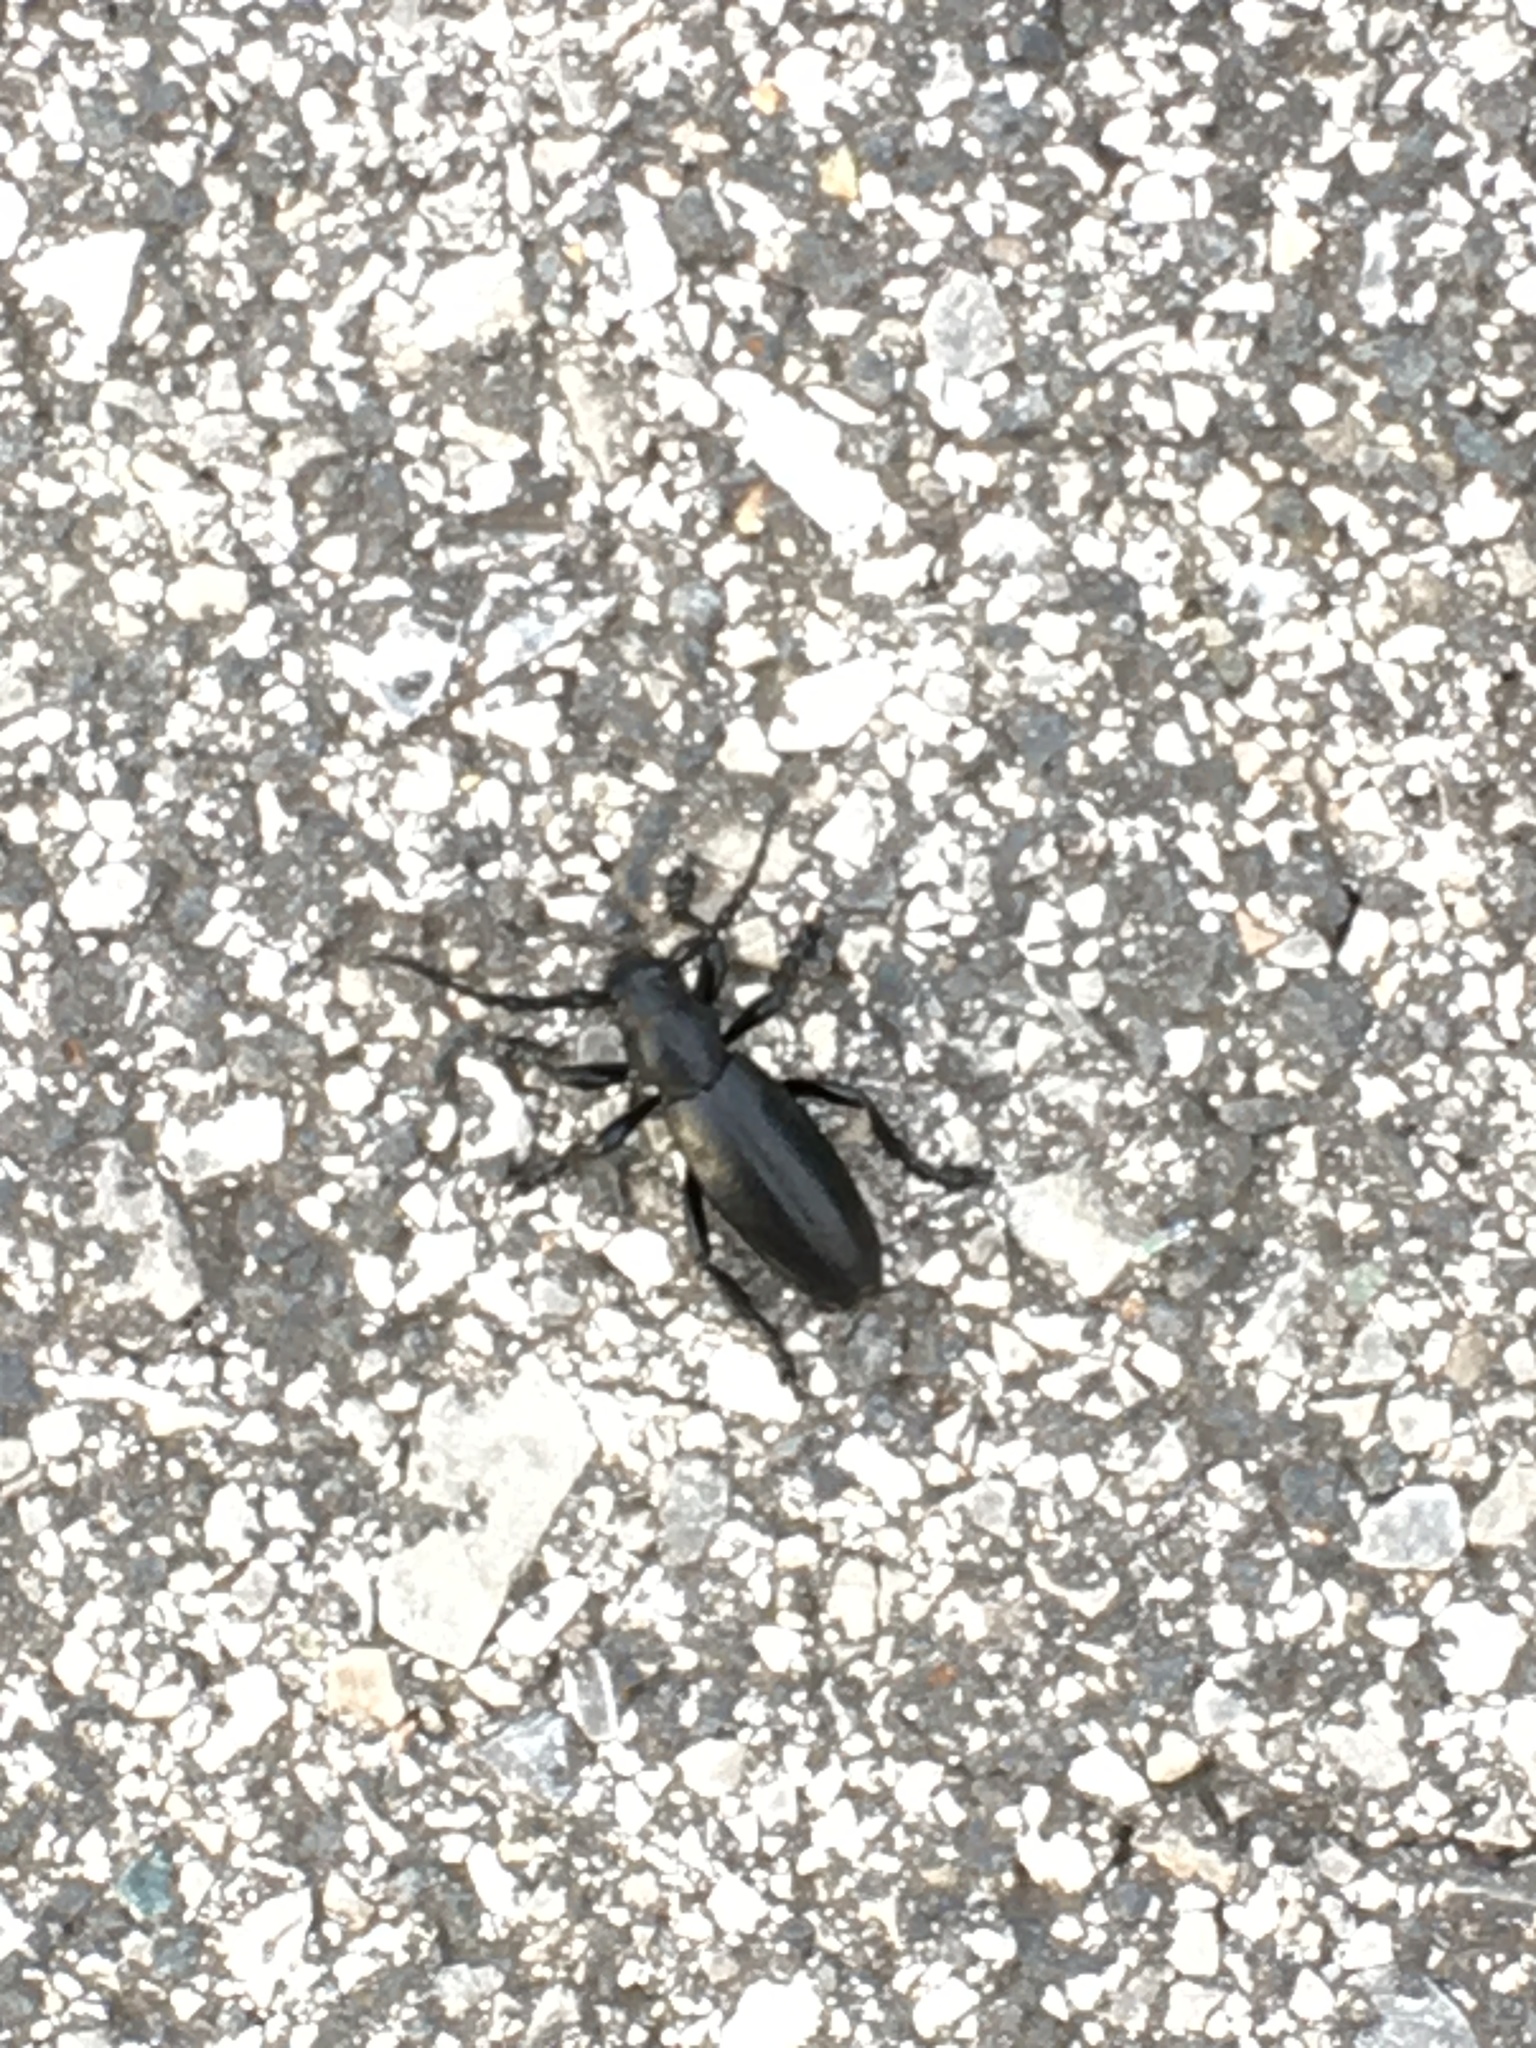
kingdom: Animalia
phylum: Arthropoda
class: Insecta
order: Coleoptera
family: Cerambycidae
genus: Dorcadion
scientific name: Dorcadion aethiops
